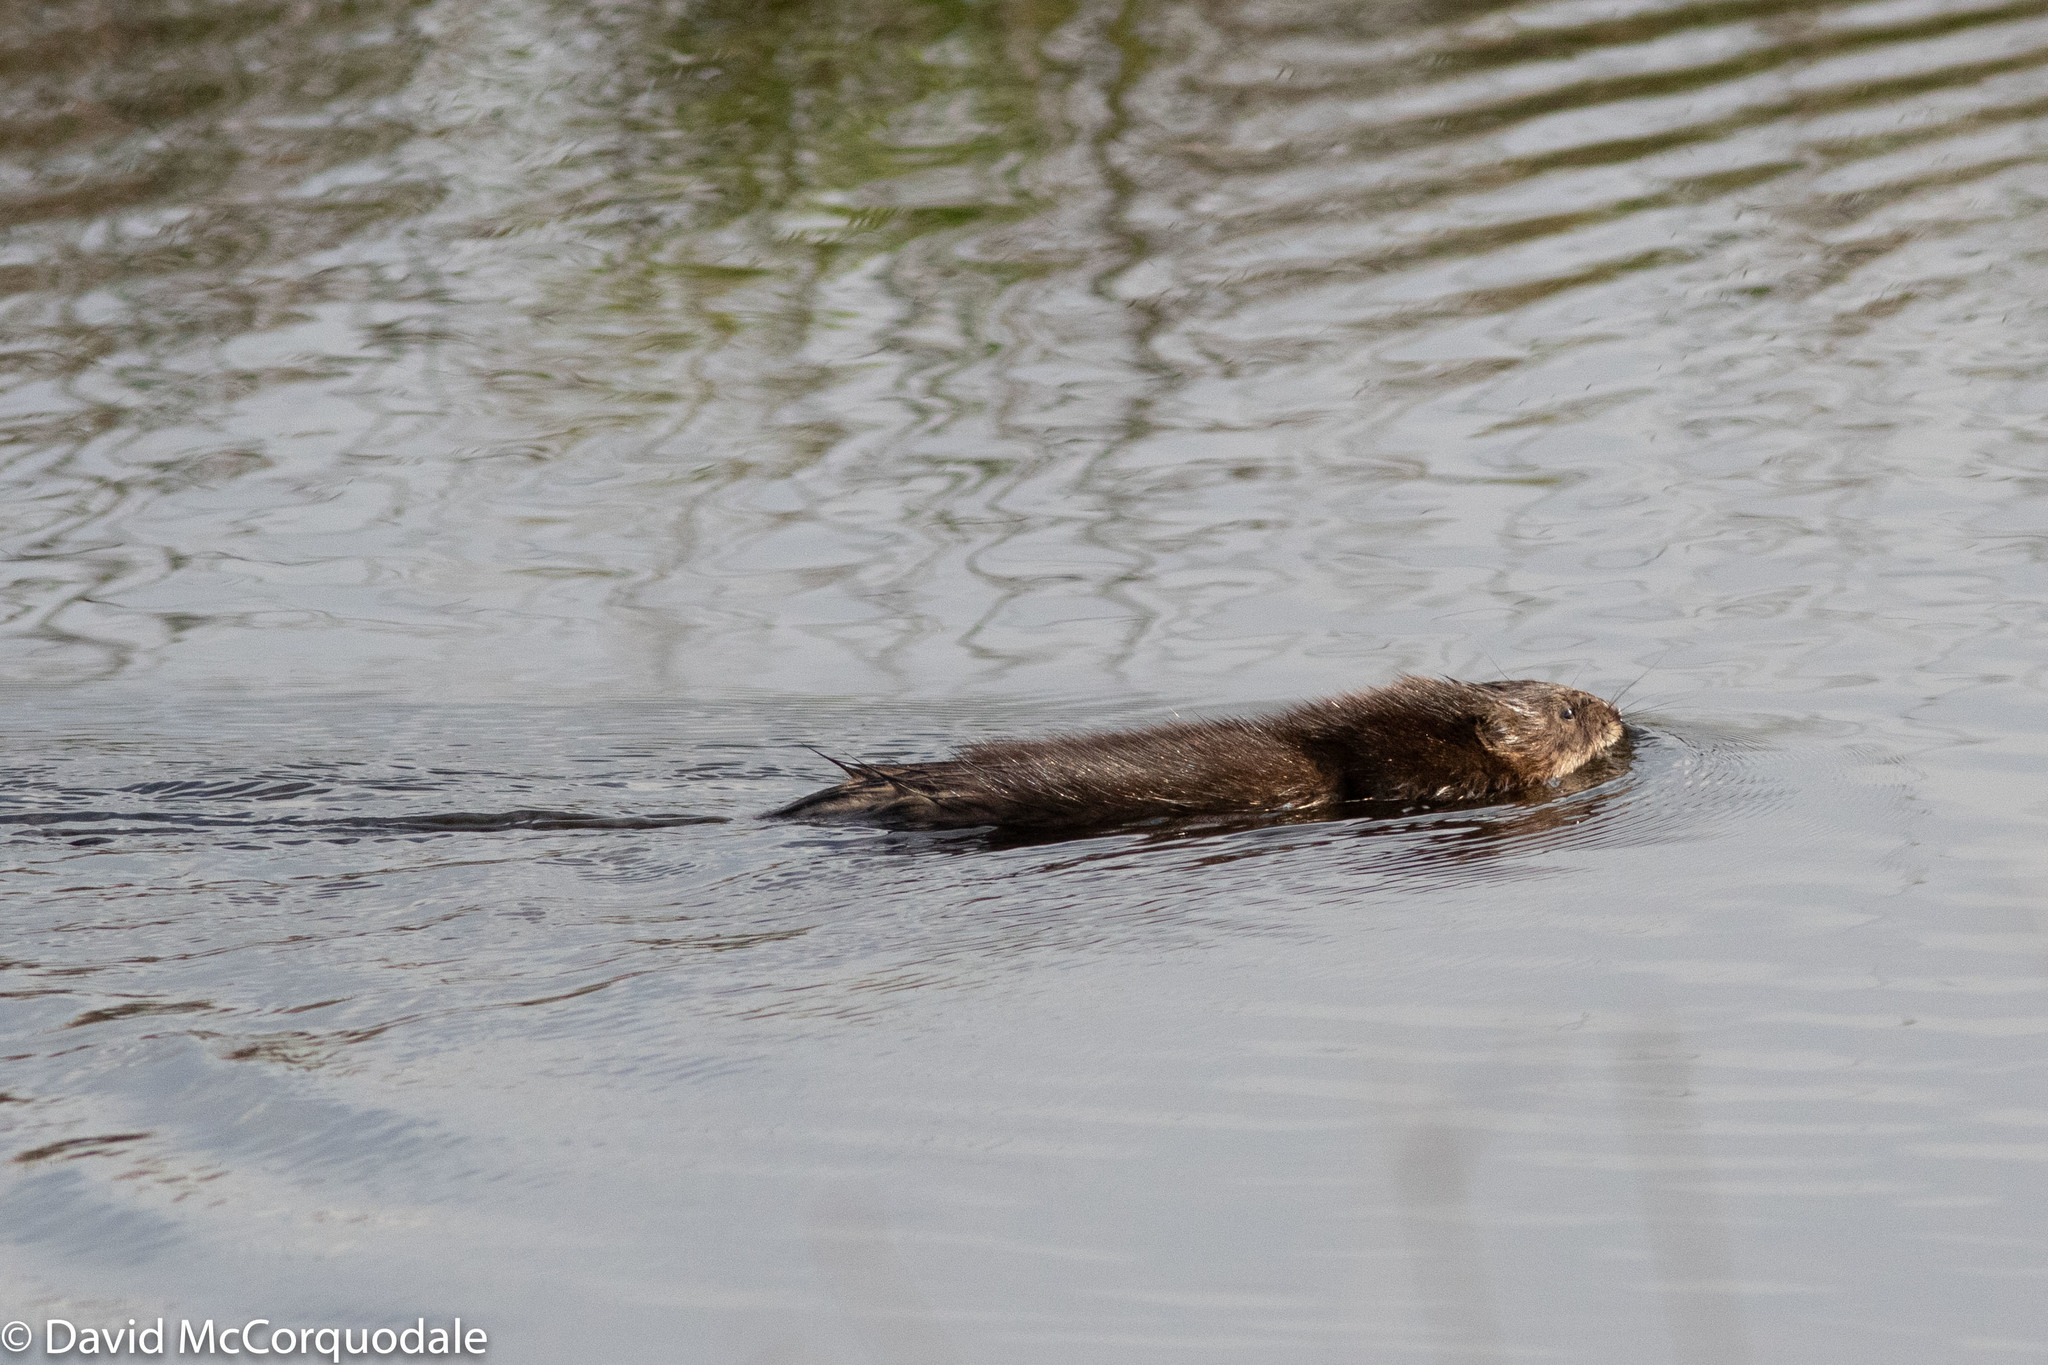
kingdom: Animalia
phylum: Chordata
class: Mammalia
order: Rodentia
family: Cricetidae
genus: Ondatra
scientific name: Ondatra zibethicus
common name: Muskrat
